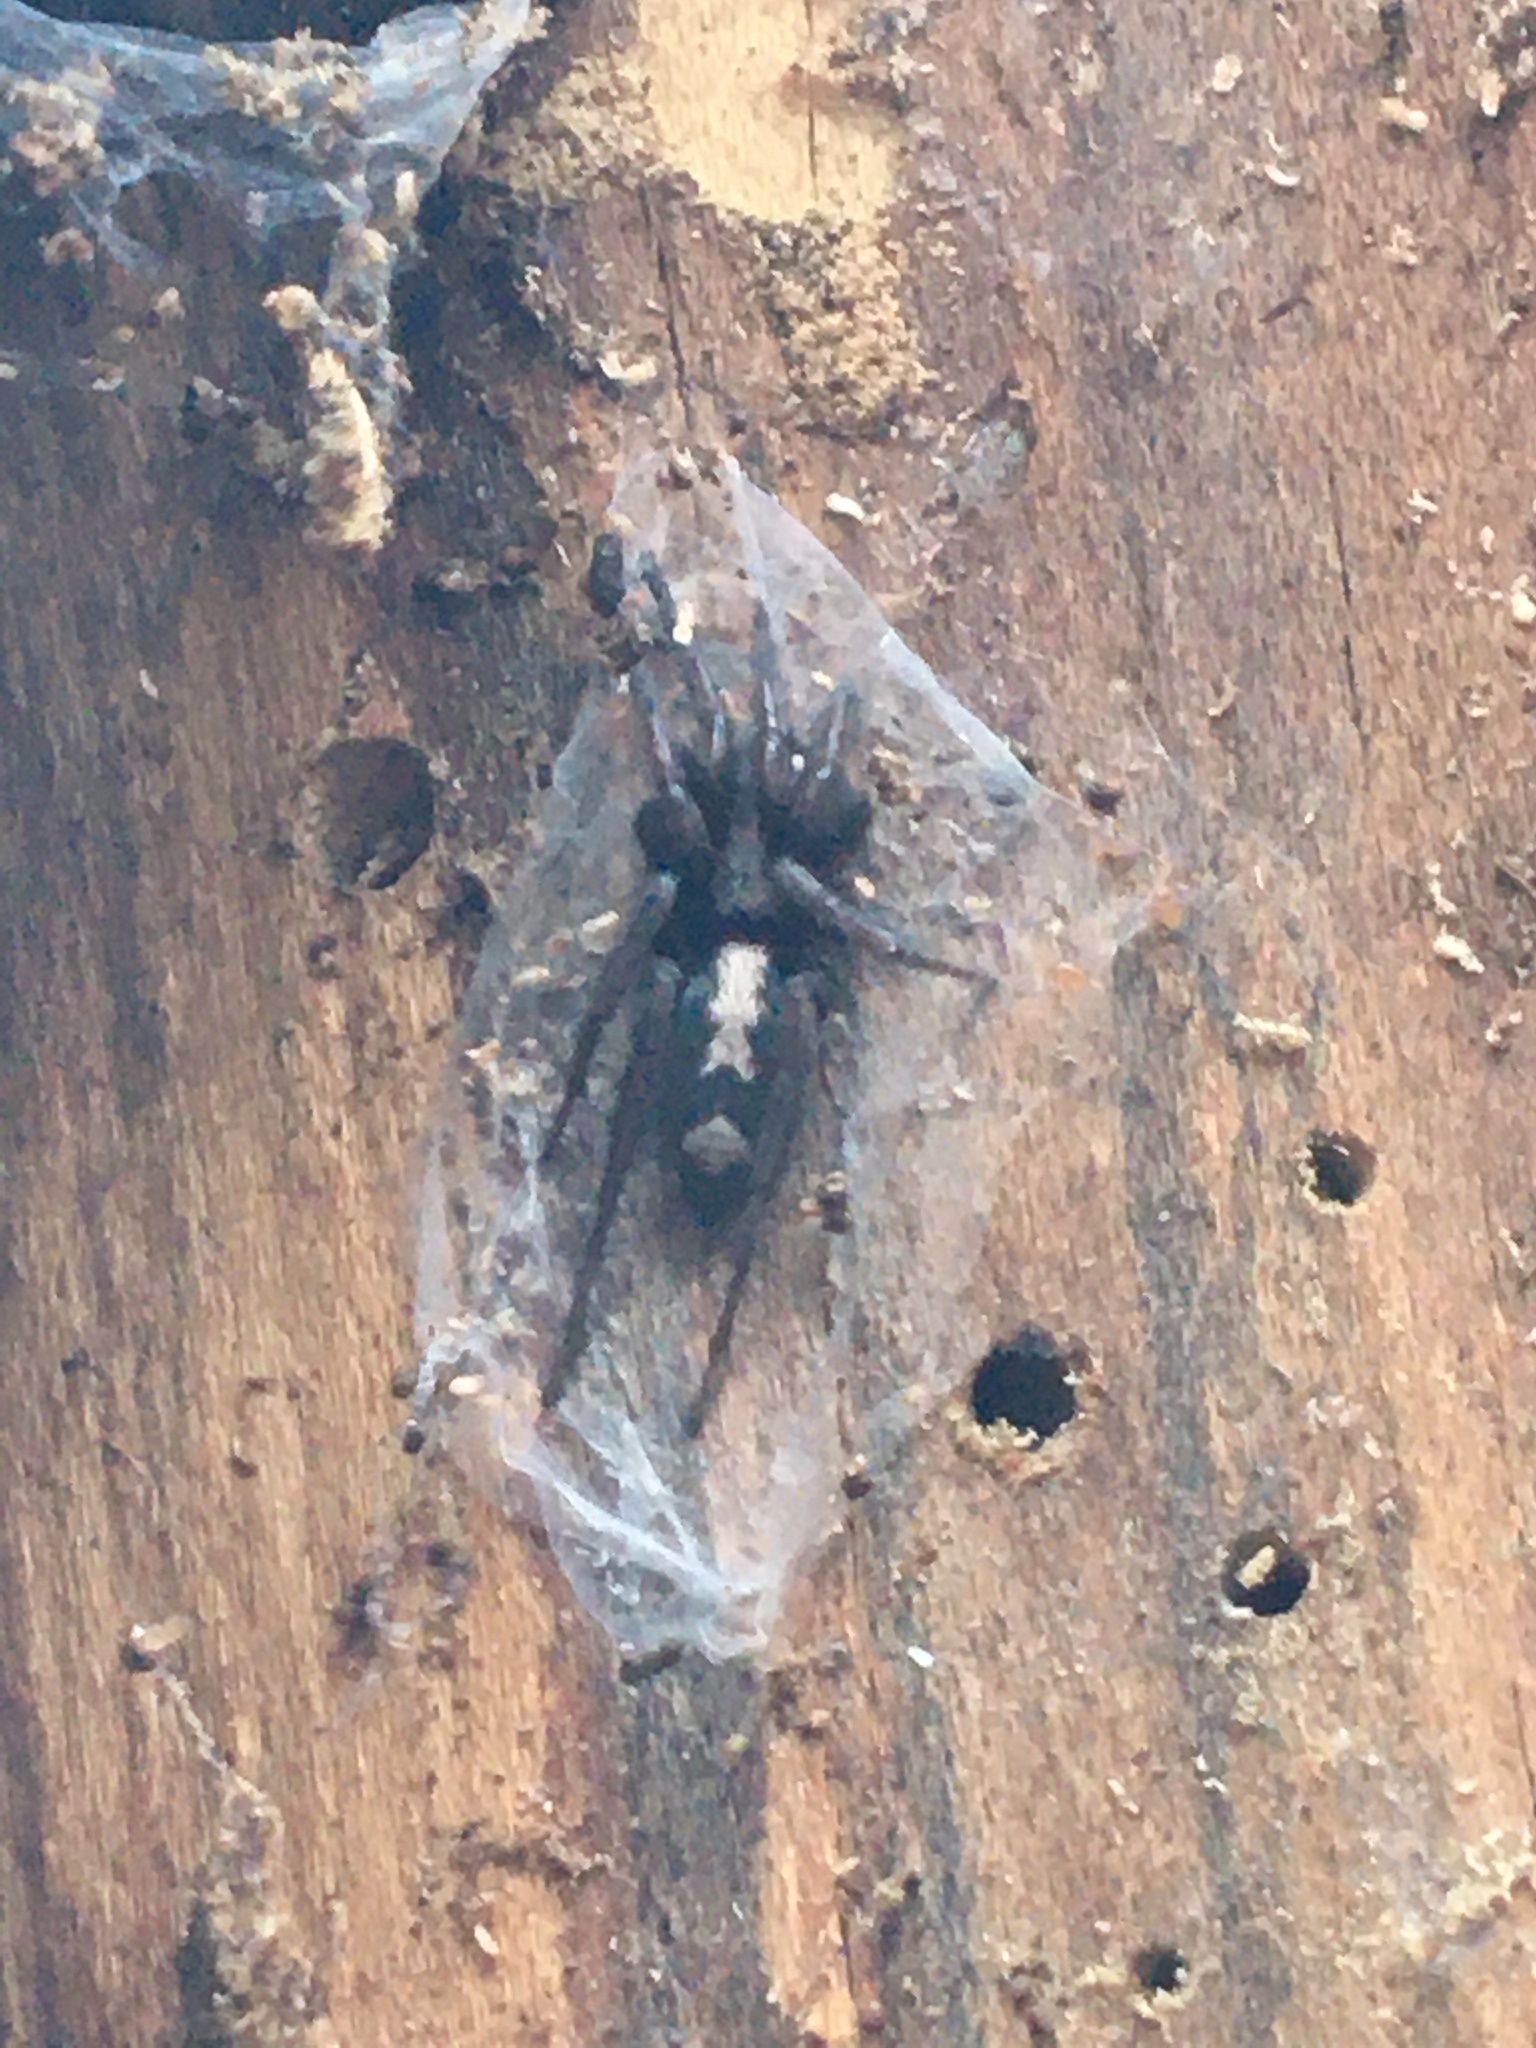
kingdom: Animalia
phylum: Arthropoda
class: Arachnida
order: Araneae
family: Gnaphosidae
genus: Herpyllus
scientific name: Herpyllus ecclesiasticus
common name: Eastern parson spider
